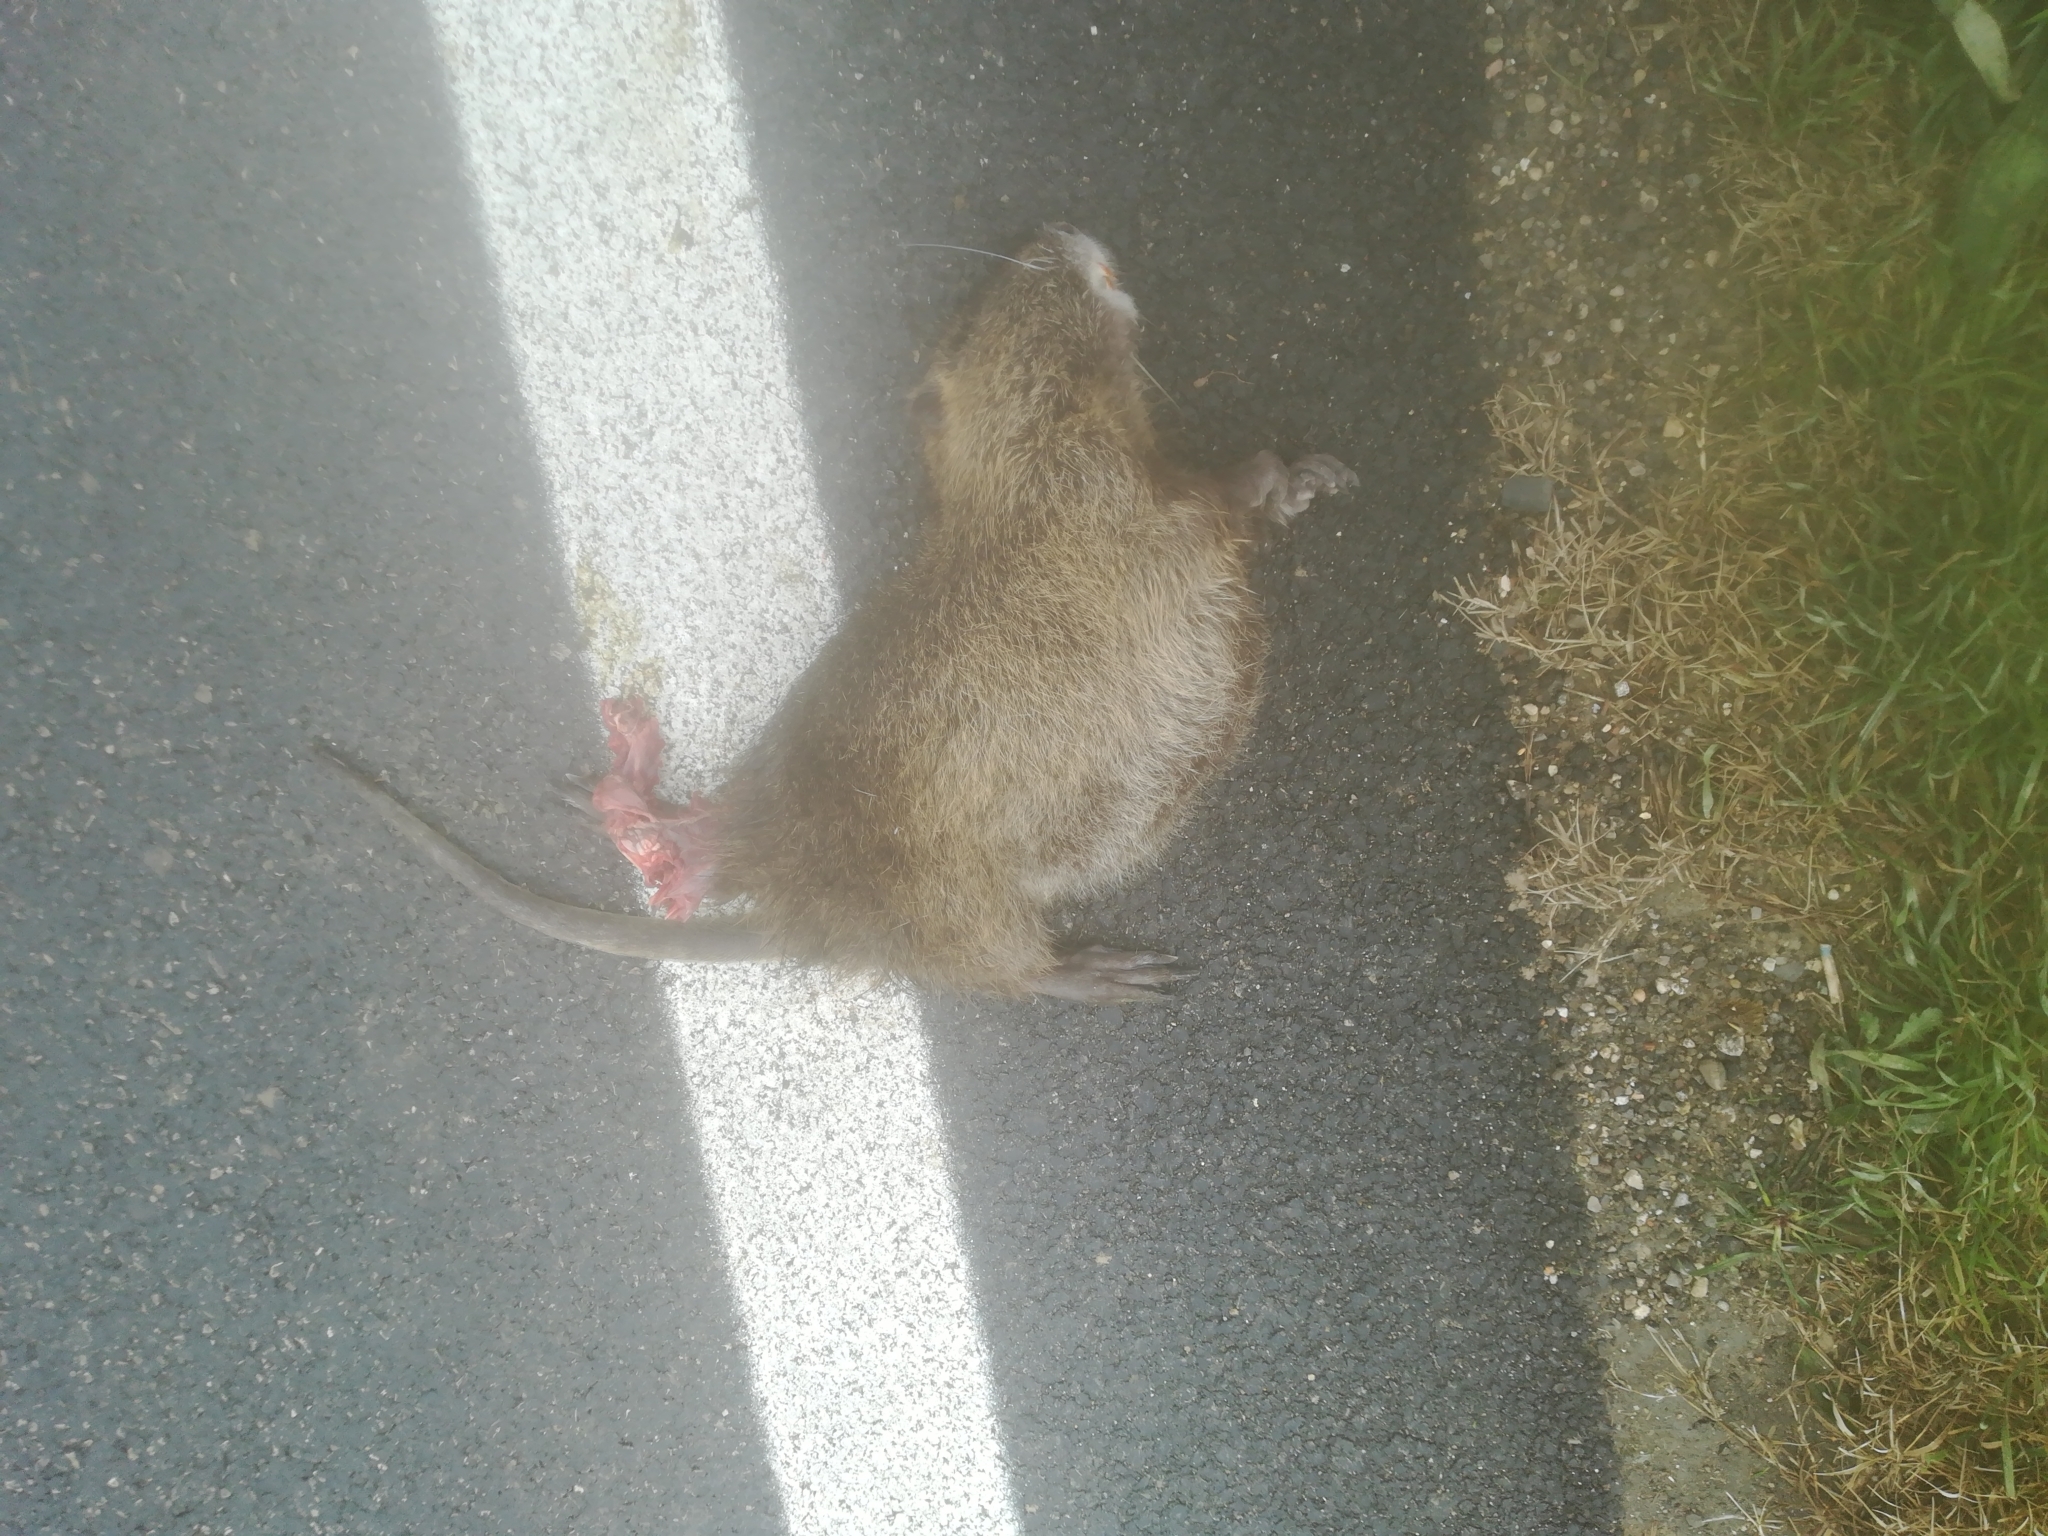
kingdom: Animalia
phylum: Chordata
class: Mammalia
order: Rodentia
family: Myocastoridae
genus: Myocastor
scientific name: Myocastor coypus
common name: Coypu
